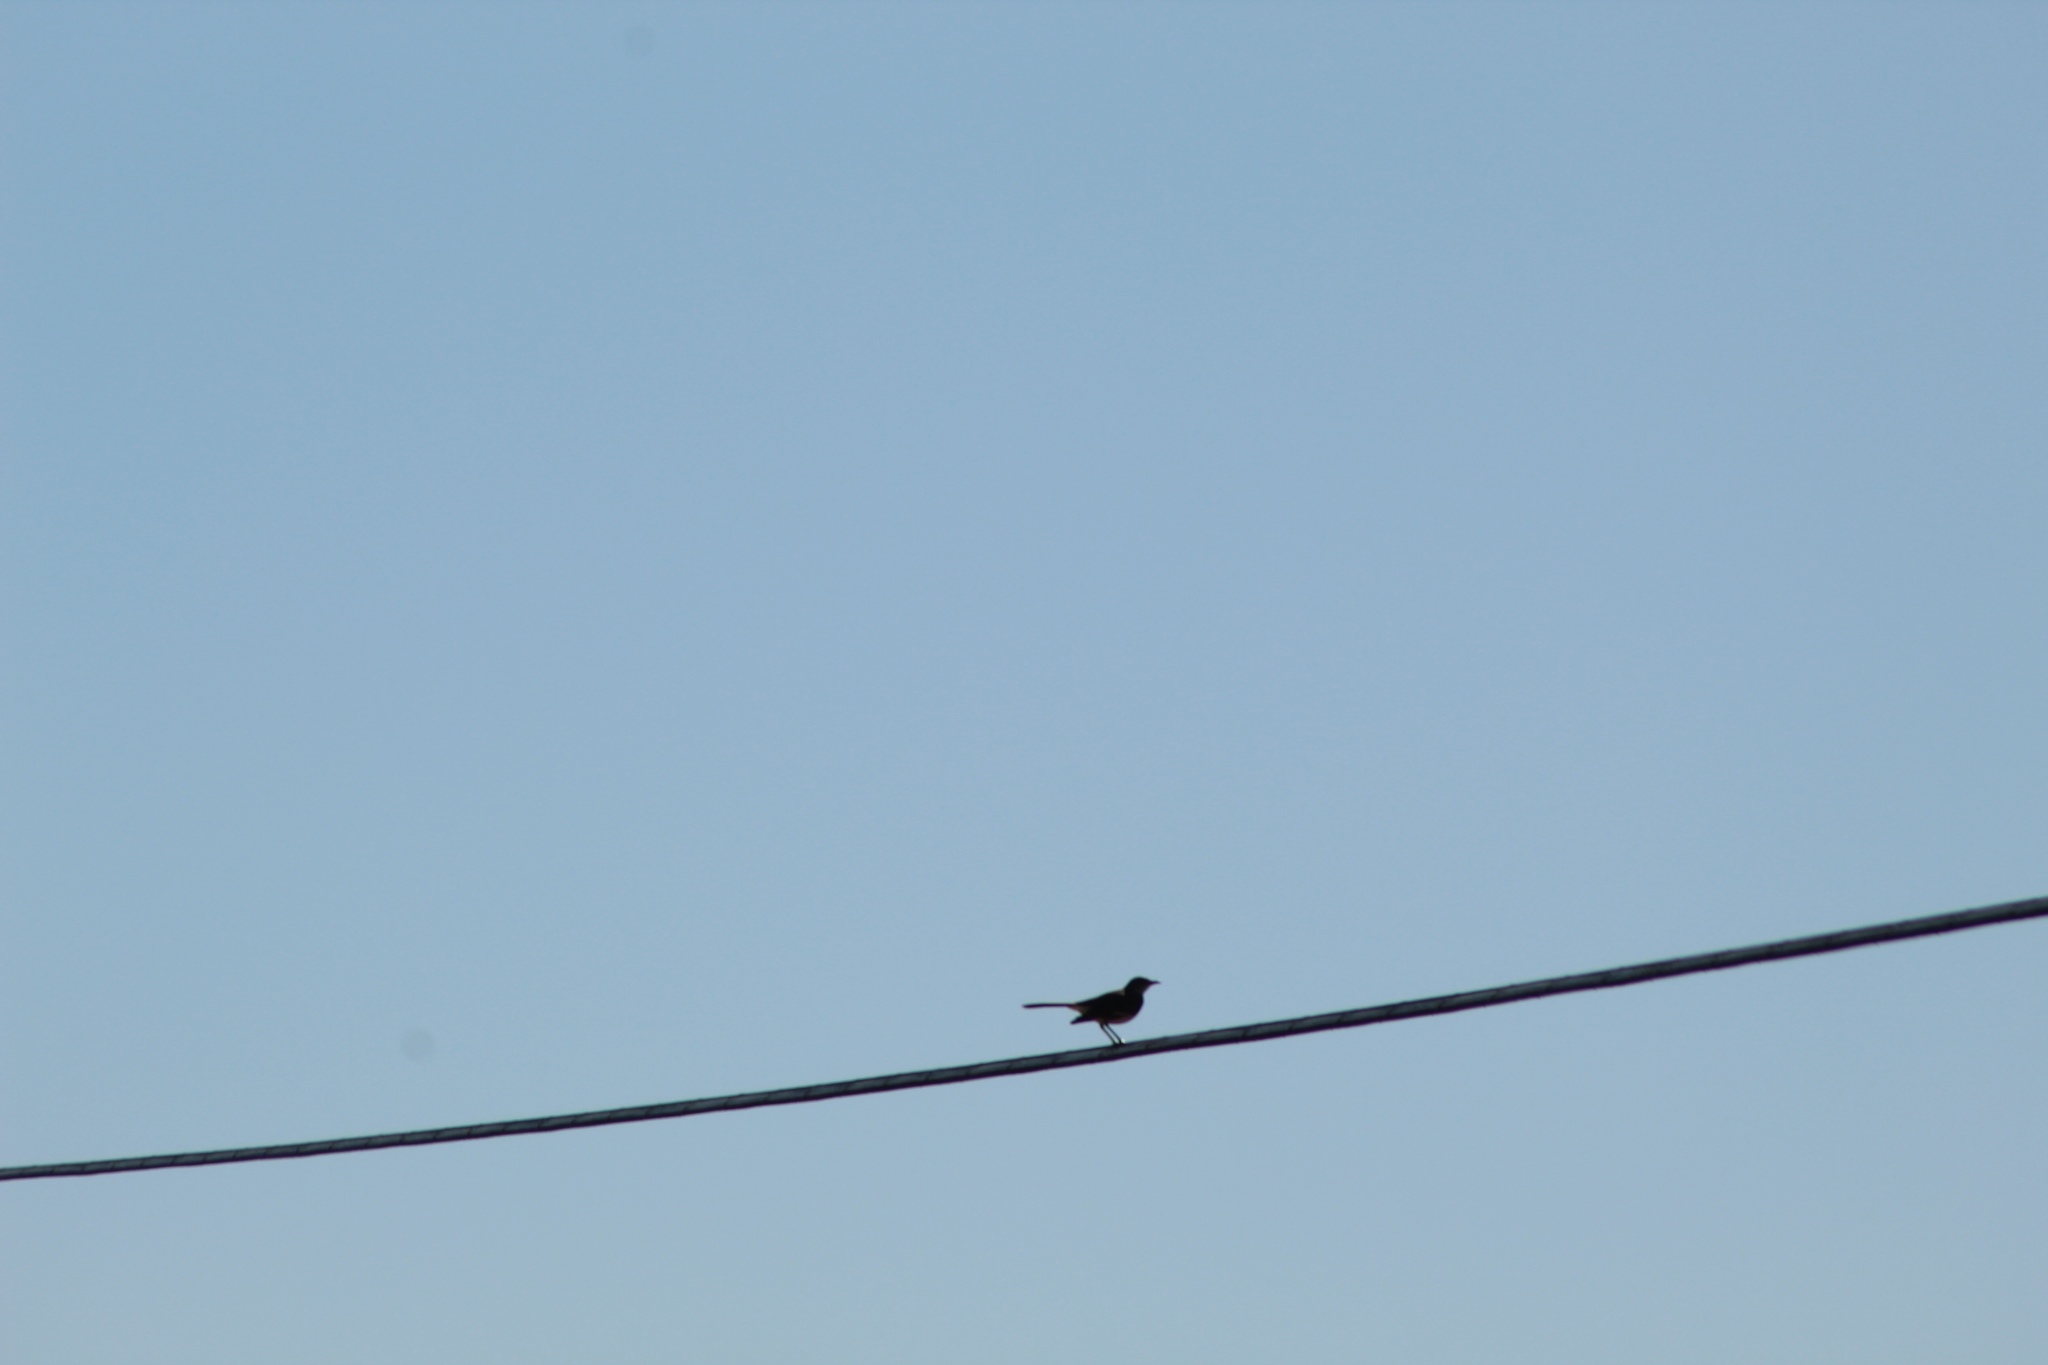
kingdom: Animalia
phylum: Chordata
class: Aves
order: Passeriformes
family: Mimidae
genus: Mimus
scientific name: Mimus polyglottos
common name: Northern mockingbird
